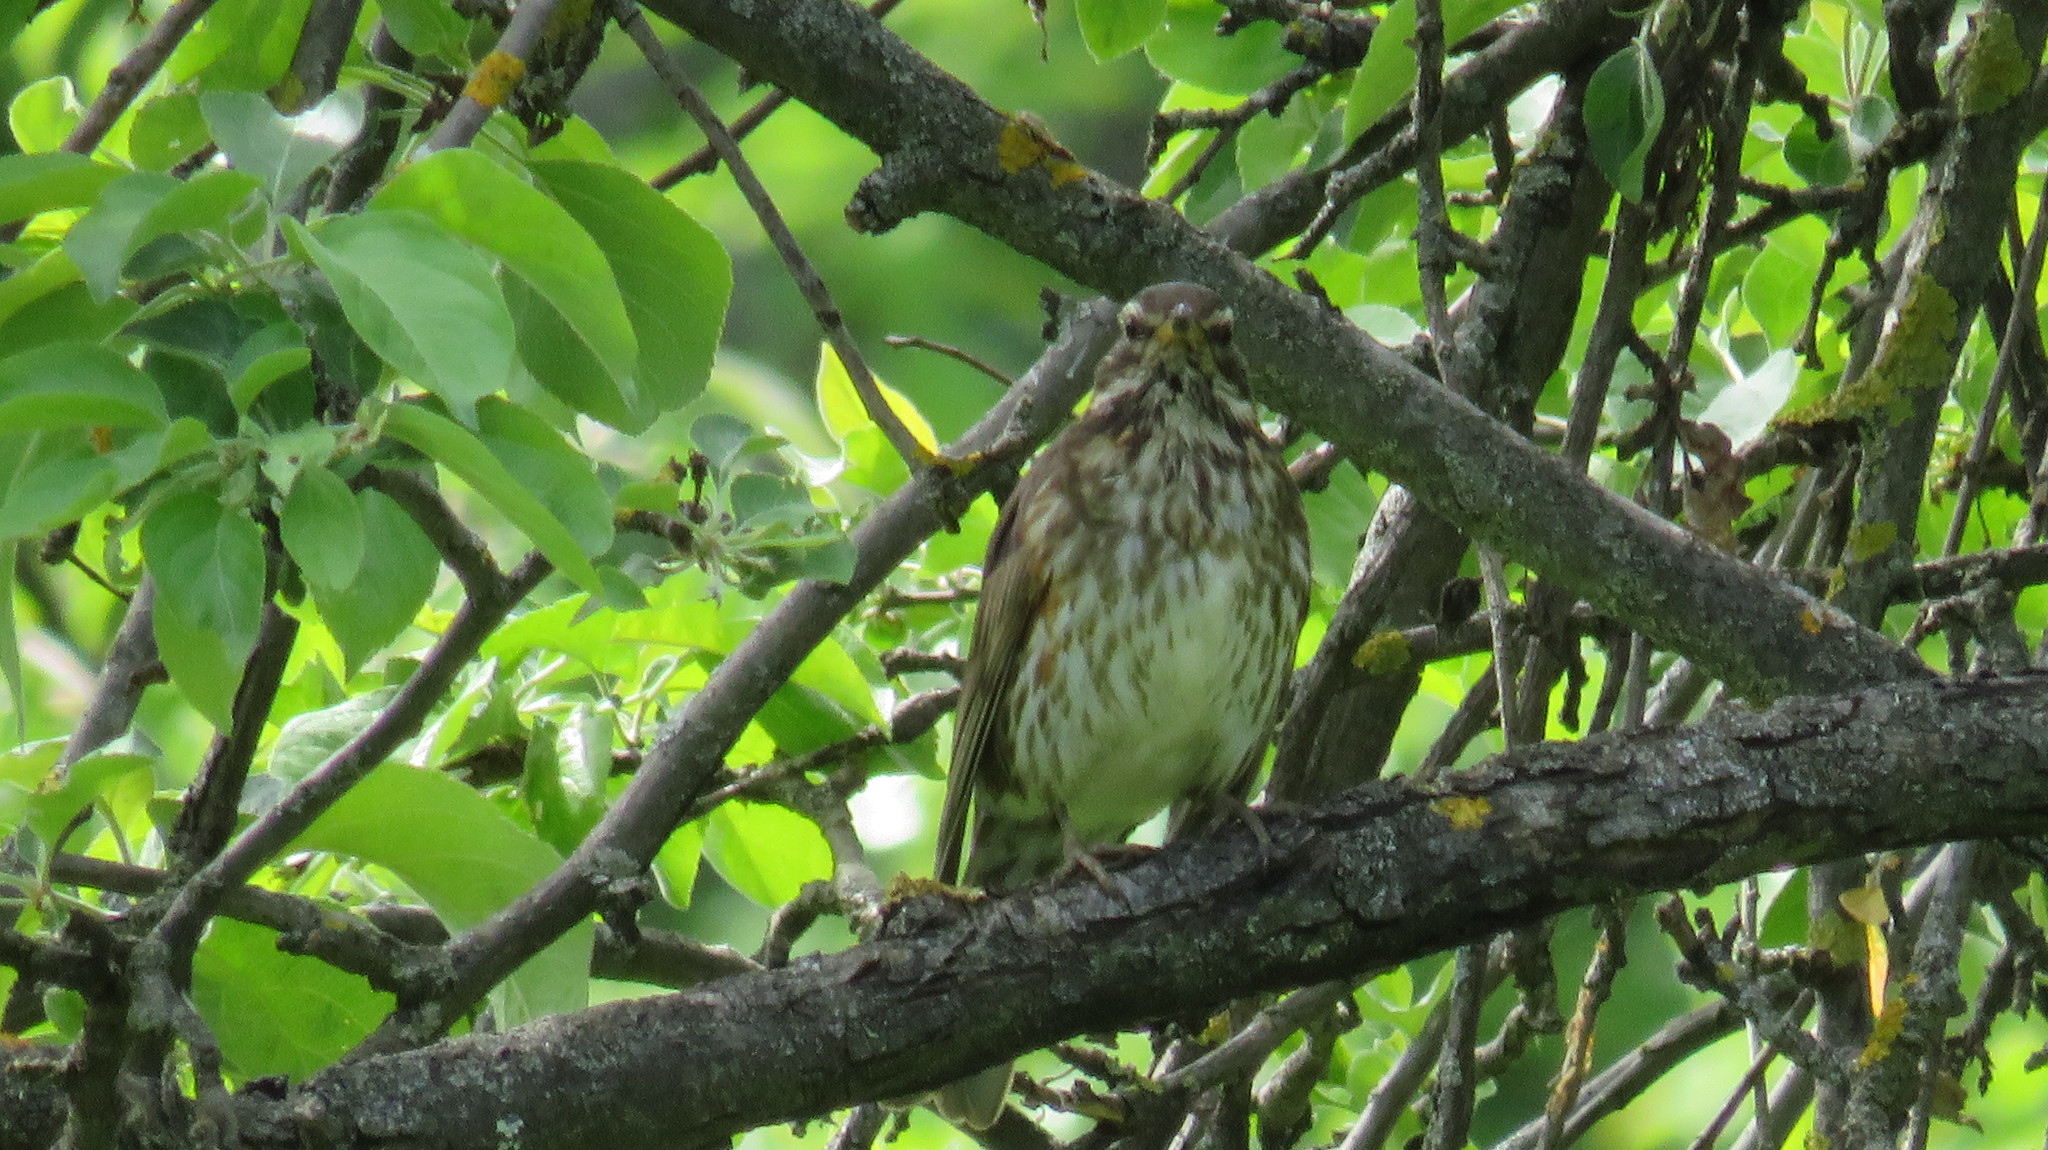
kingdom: Animalia
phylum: Chordata
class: Aves
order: Passeriformes
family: Turdidae
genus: Turdus
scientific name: Turdus iliacus
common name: Redwing
